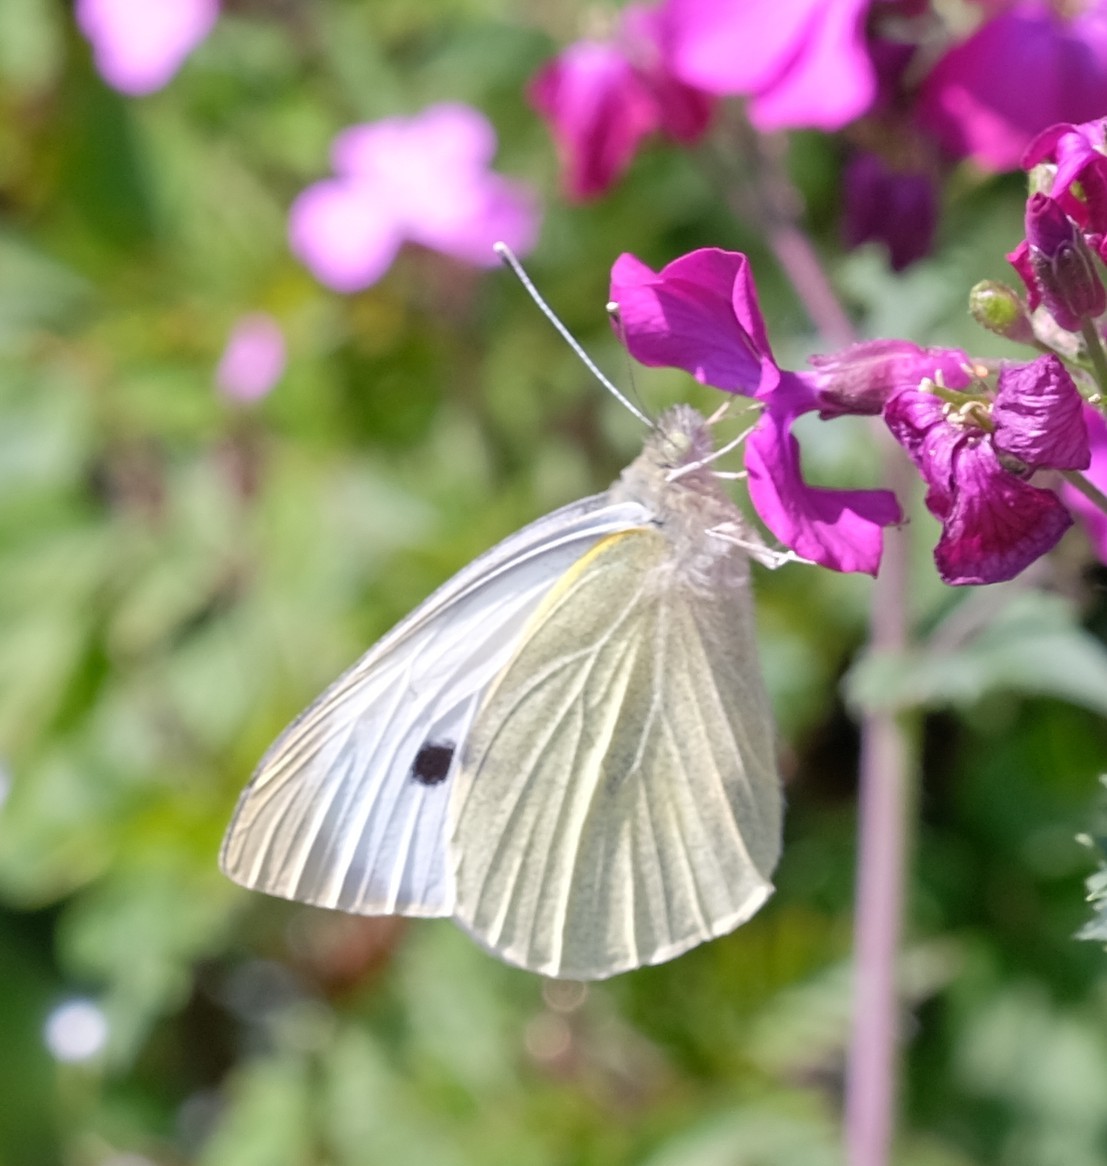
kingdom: Animalia
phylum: Arthropoda
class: Insecta
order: Lepidoptera
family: Pieridae
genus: Pieris
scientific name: Pieris brassicae
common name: Large white
